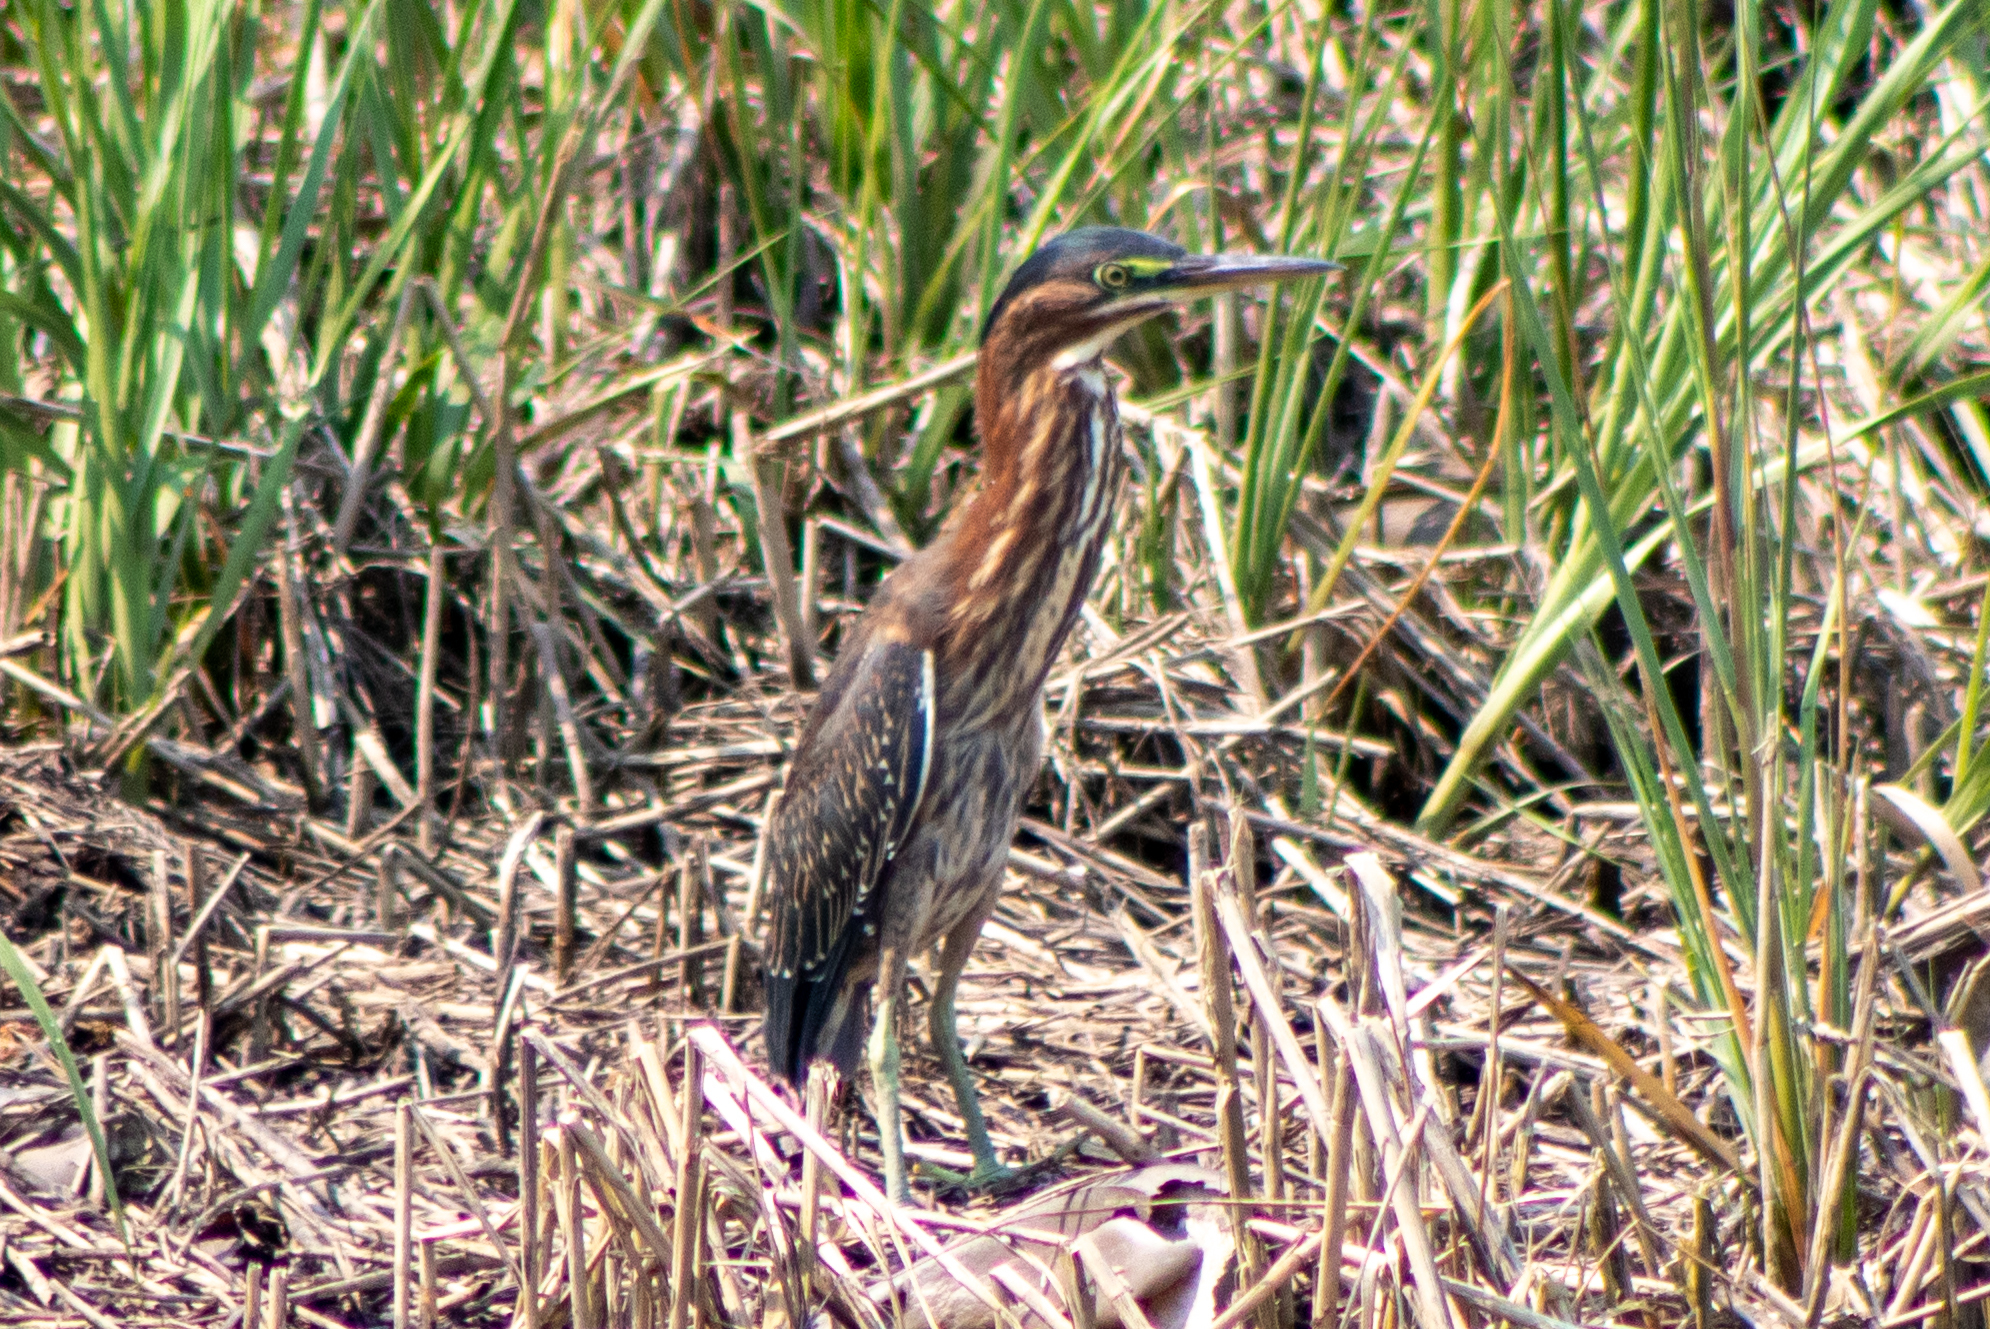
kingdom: Animalia
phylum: Chordata
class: Aves
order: Pelecaniformes
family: Ardeidae
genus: Butorides
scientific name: Butorides virescens
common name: Green heron
